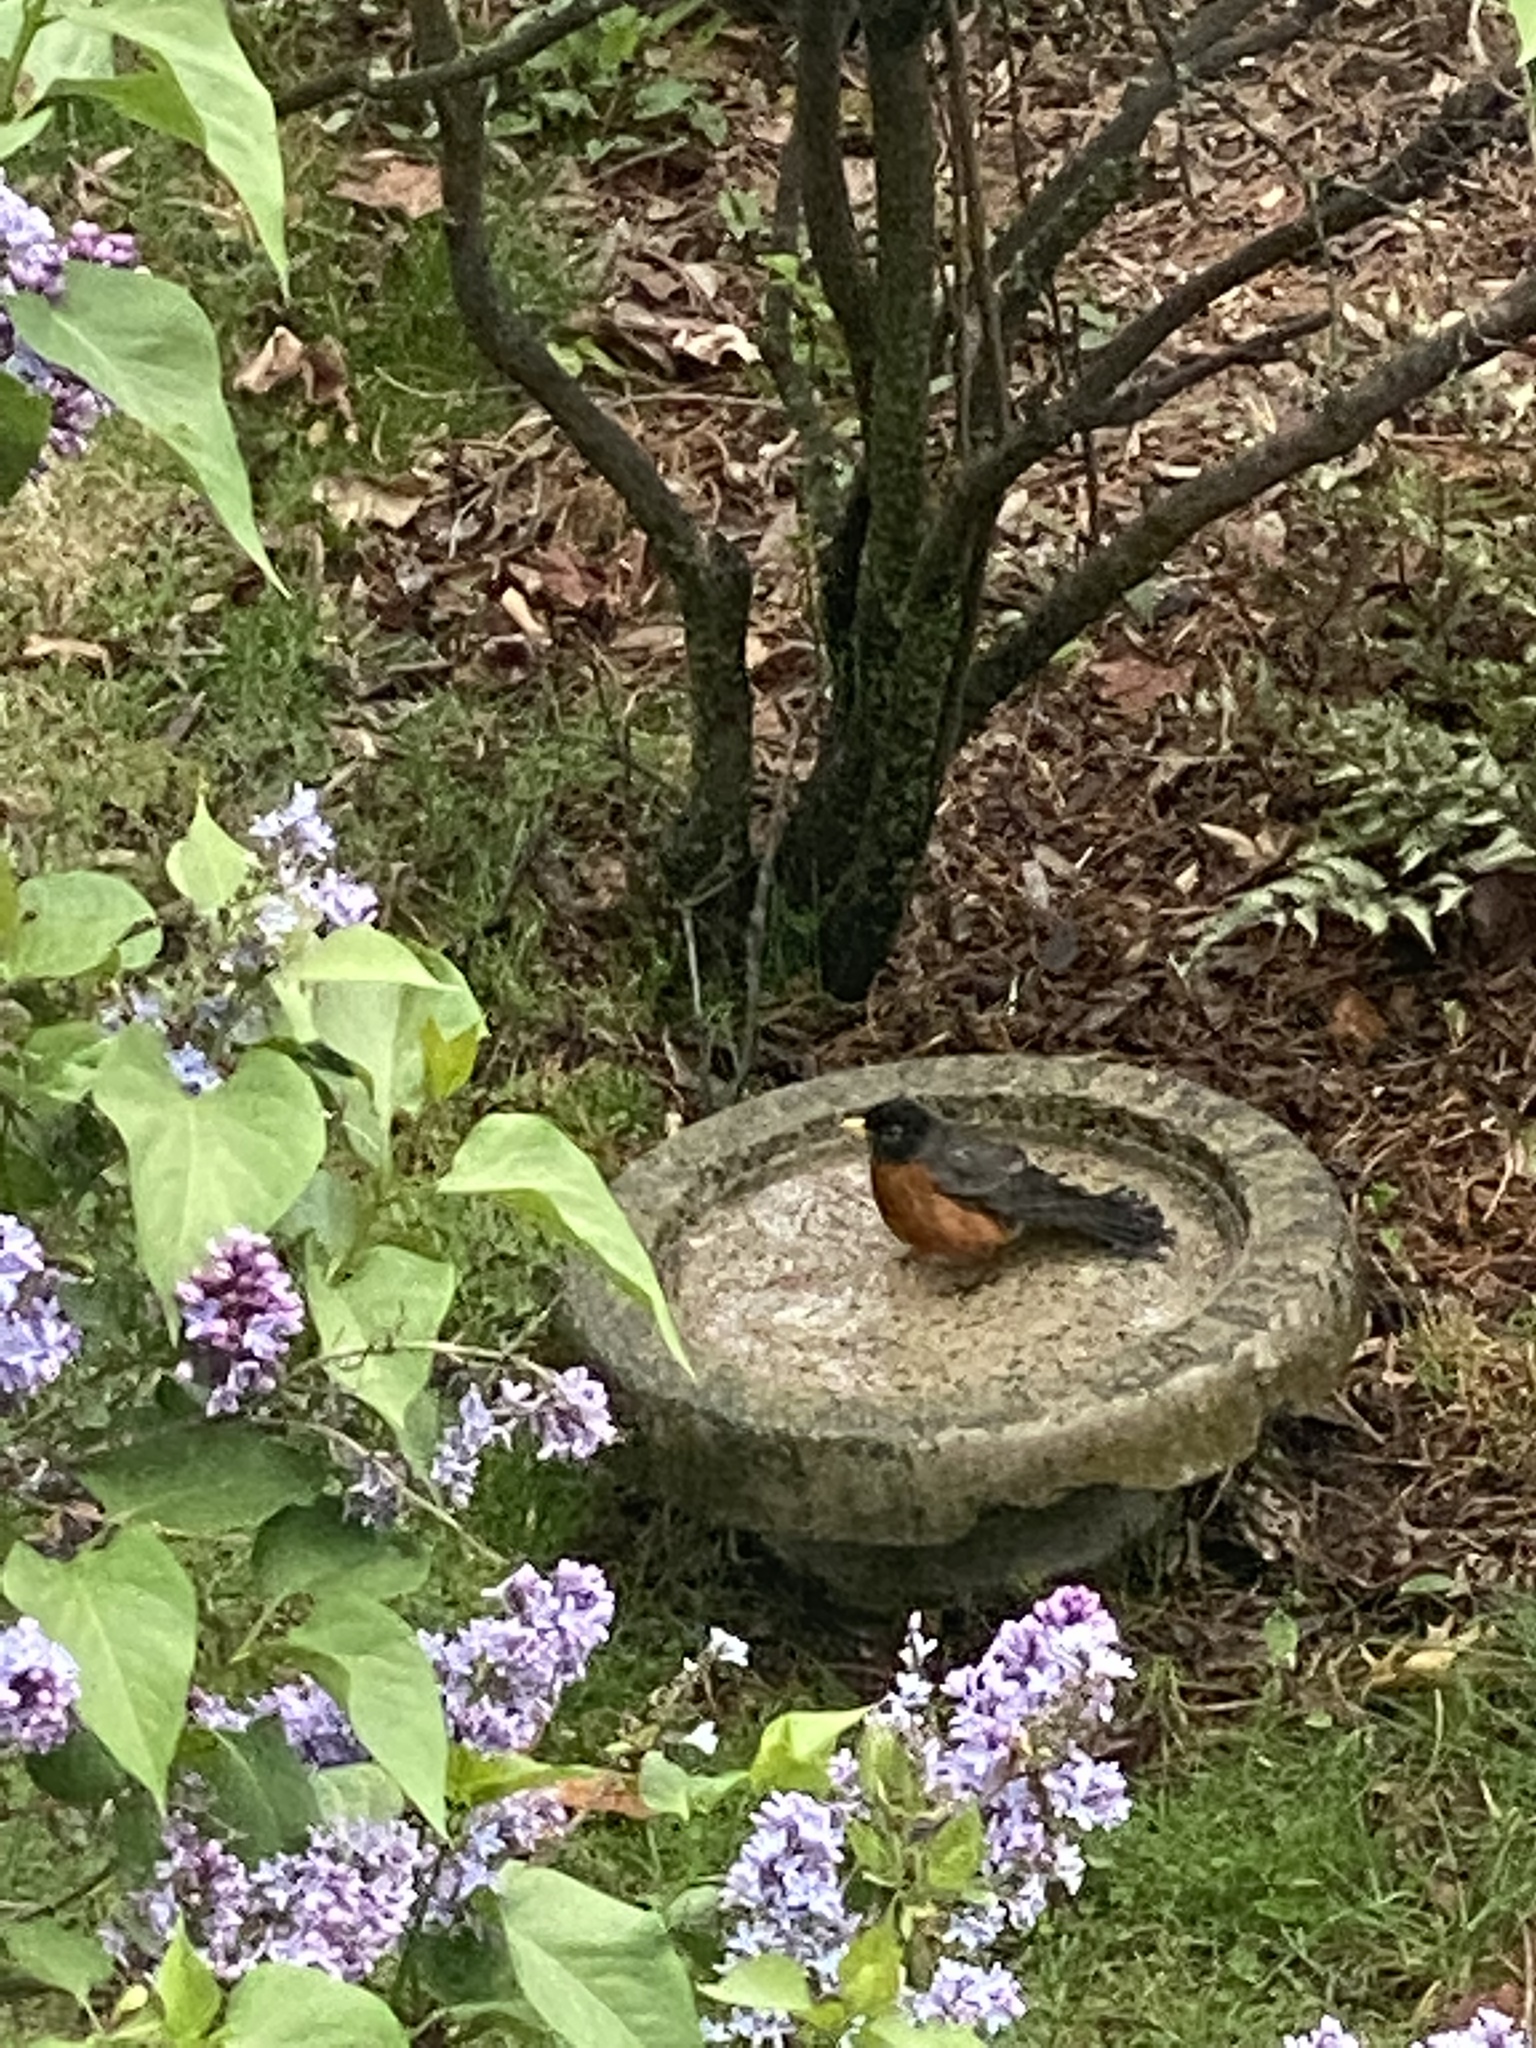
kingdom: Animalia
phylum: Chordata
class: Aves
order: Passeriformes
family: Turdidae
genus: Turdus
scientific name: Turdus migratorius
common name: American robin
